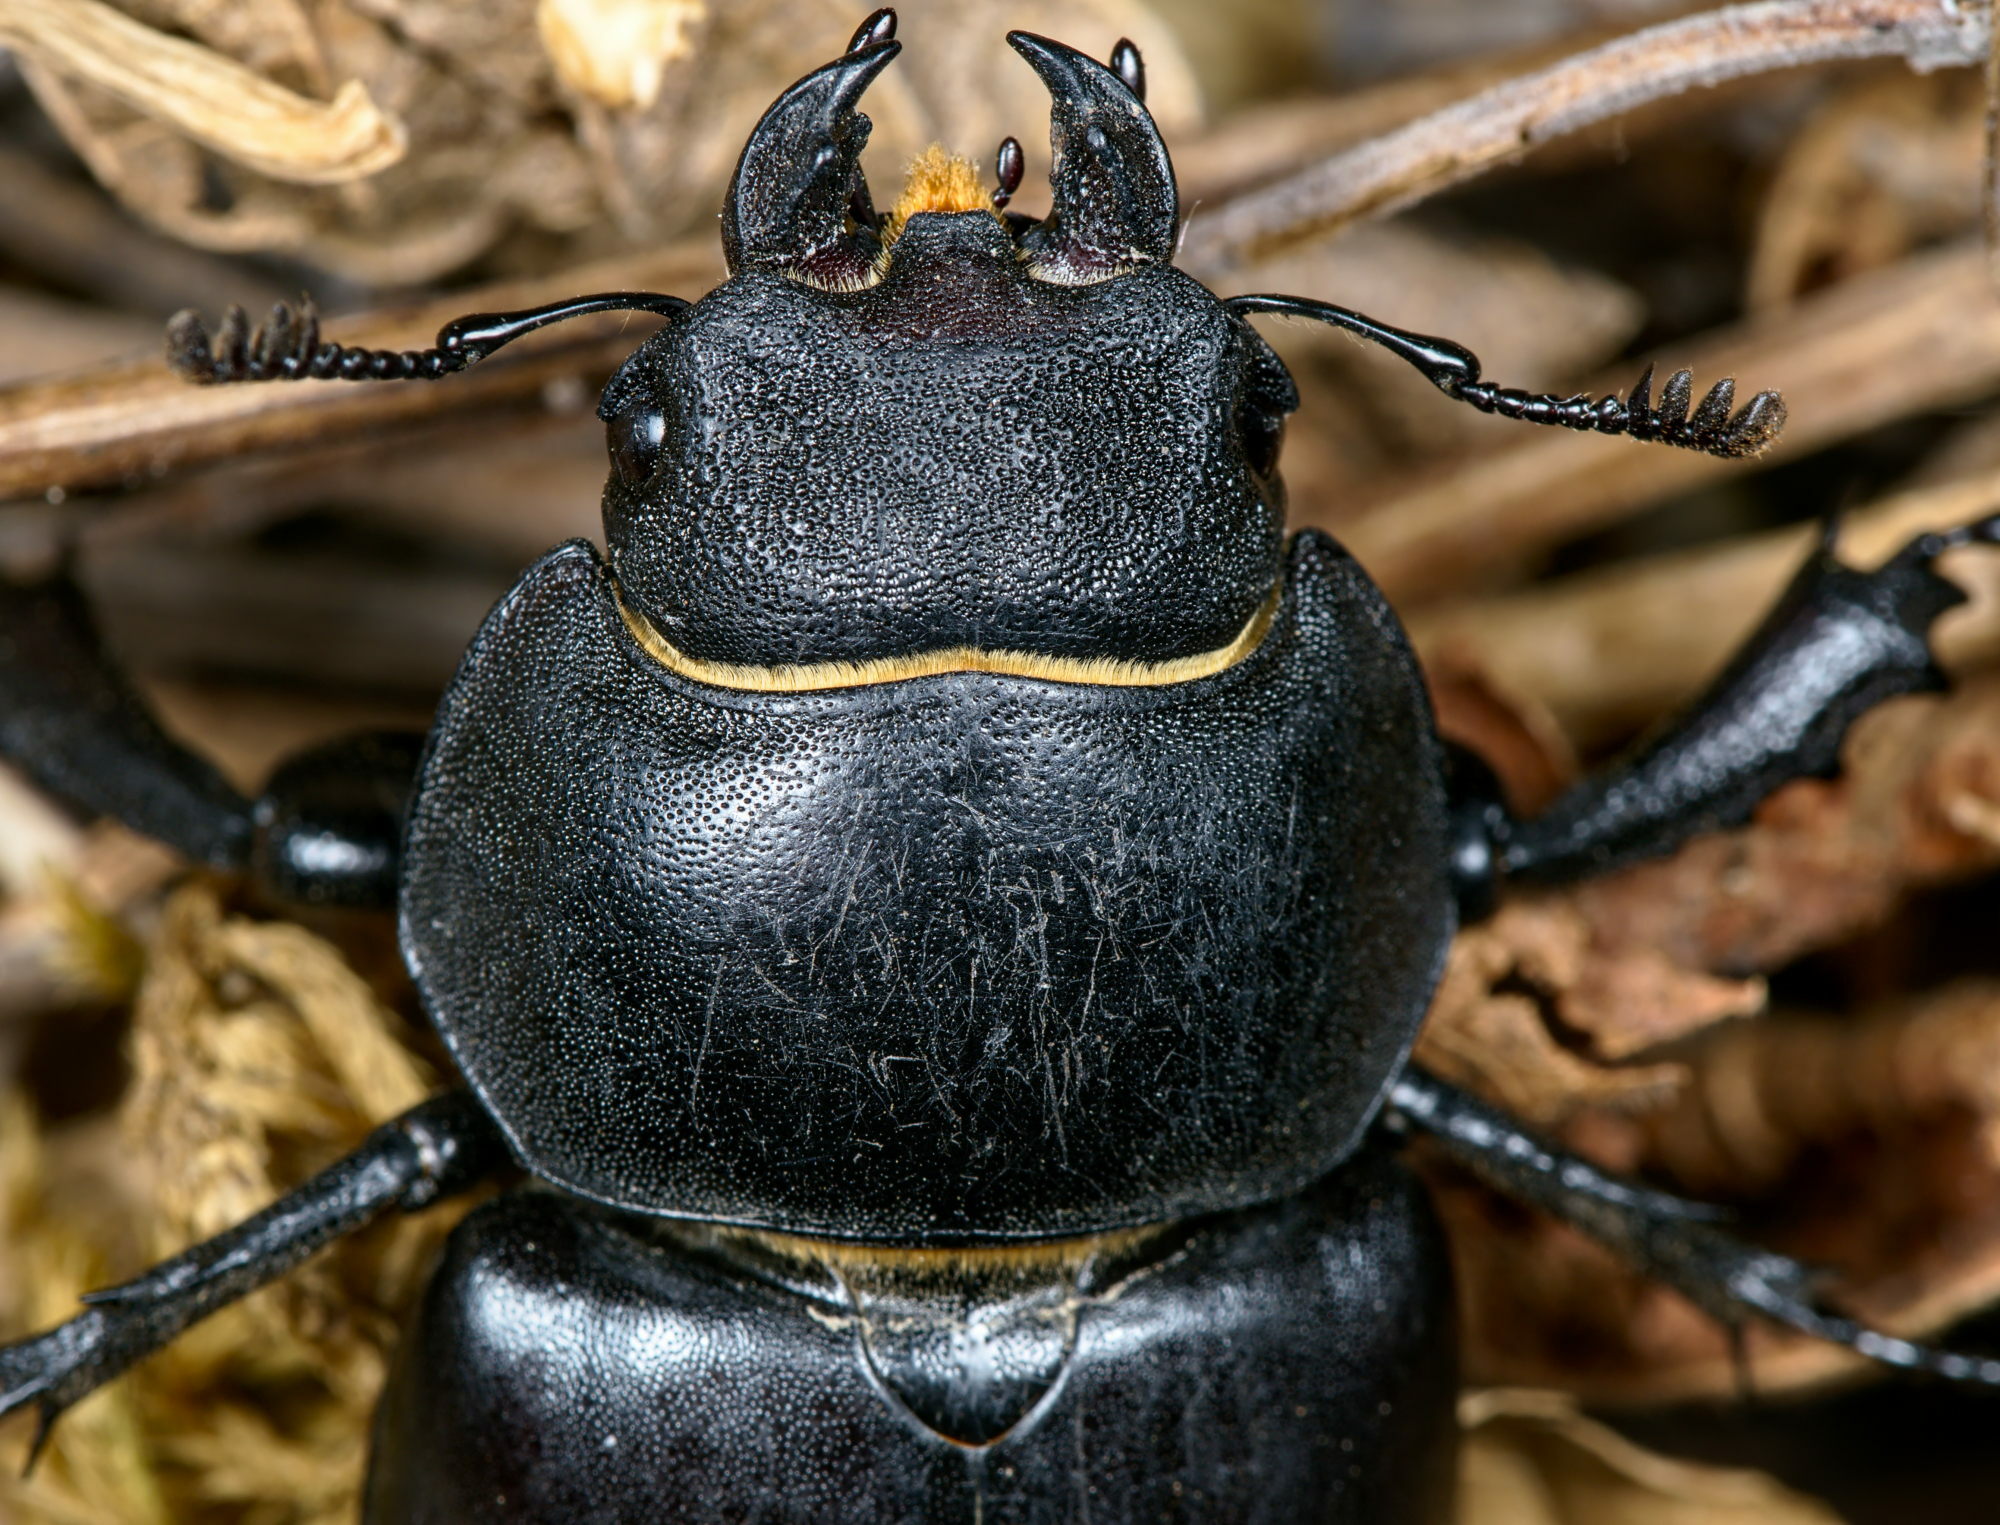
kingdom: Animalia
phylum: Arthropoda
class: Insecta
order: Coleoptera
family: Lucanidae
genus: Lucanus
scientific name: Lucanus cervus
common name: Stag beetle
